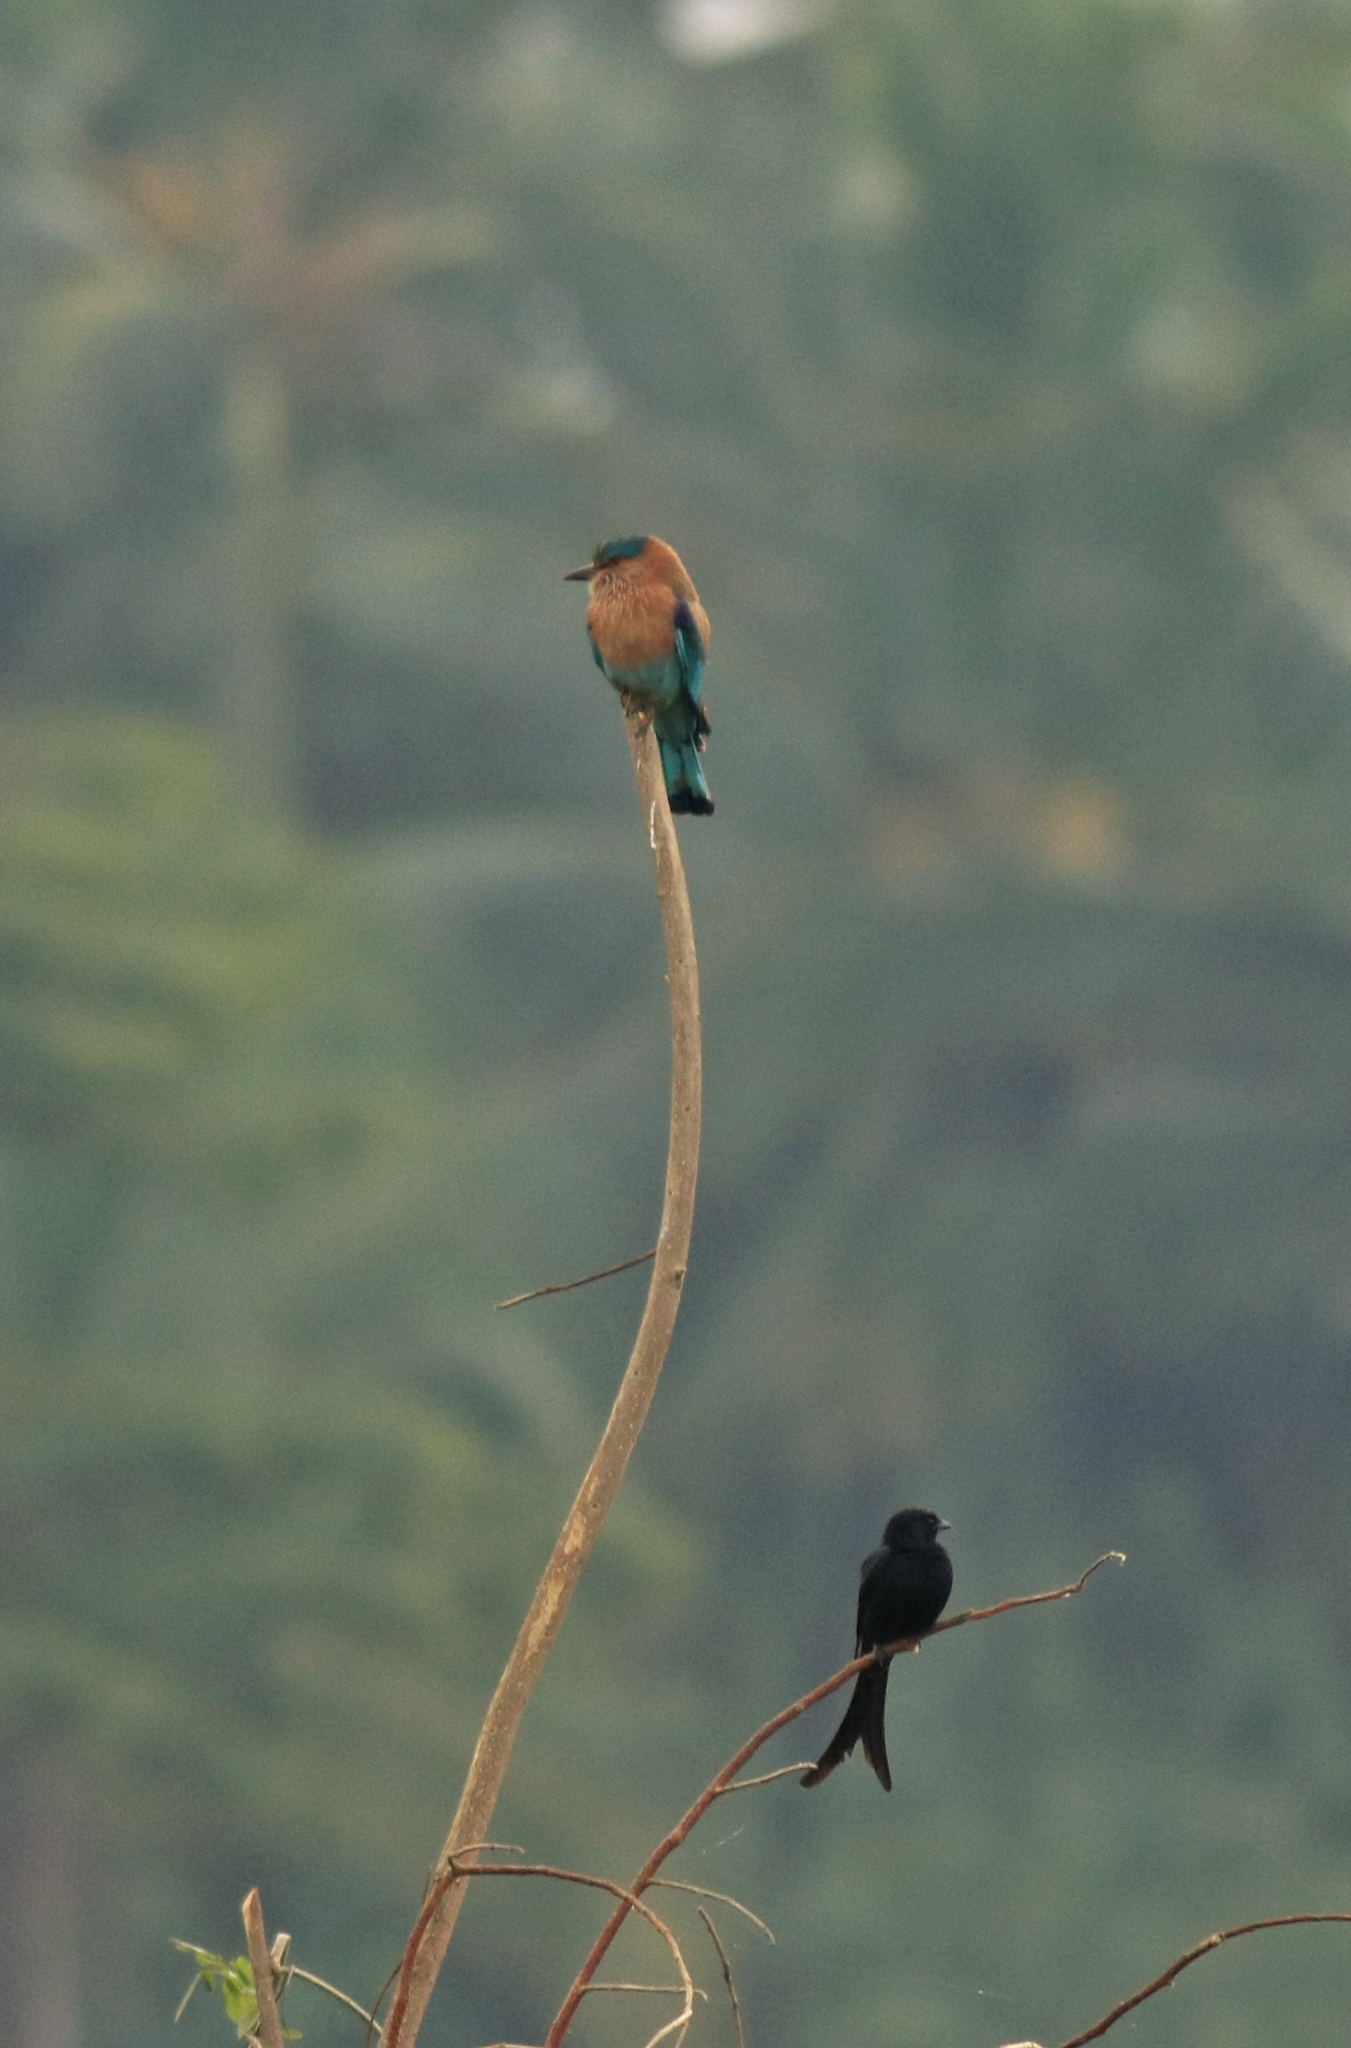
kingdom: Animalia
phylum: Chordata
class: Aves
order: Coraciiformes
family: Coraciidae
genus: Coracias
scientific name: Coracias benghalensis
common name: Indian roller
